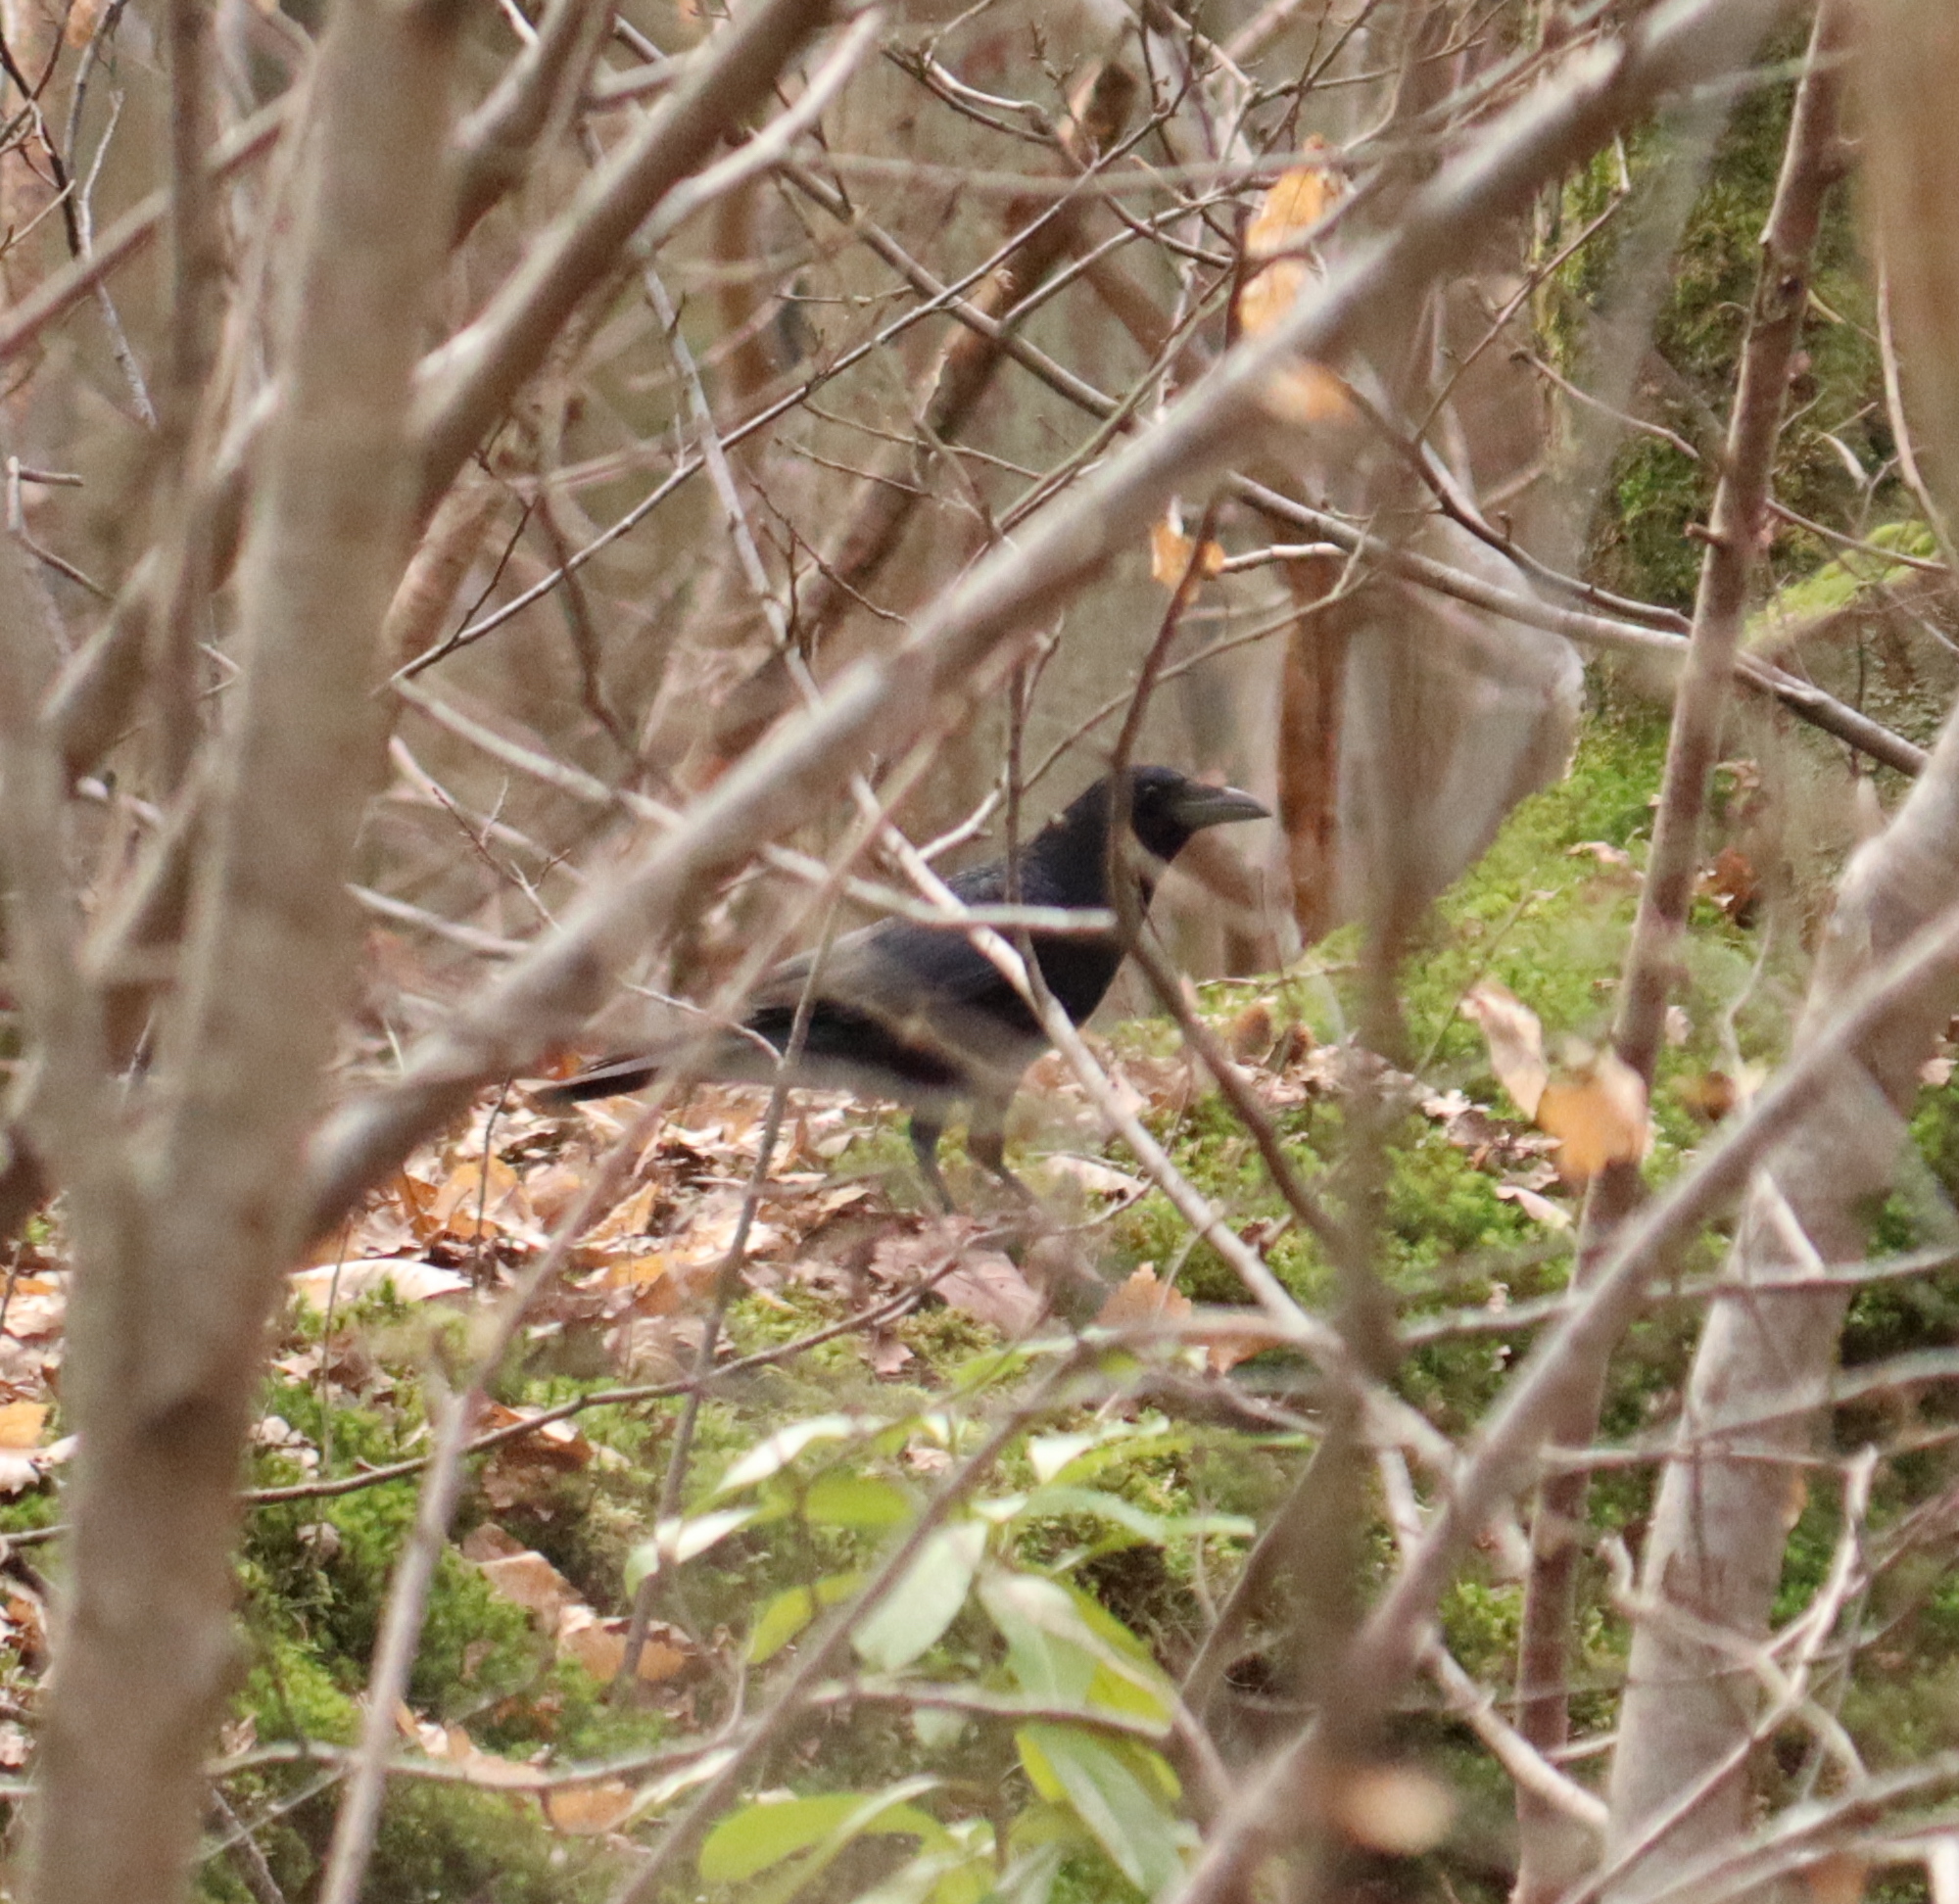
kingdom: Animalia
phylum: Chordata
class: Aves
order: Passeriformes
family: Corvidae
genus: Corvus
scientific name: Corvus corone
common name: Carrion crow
